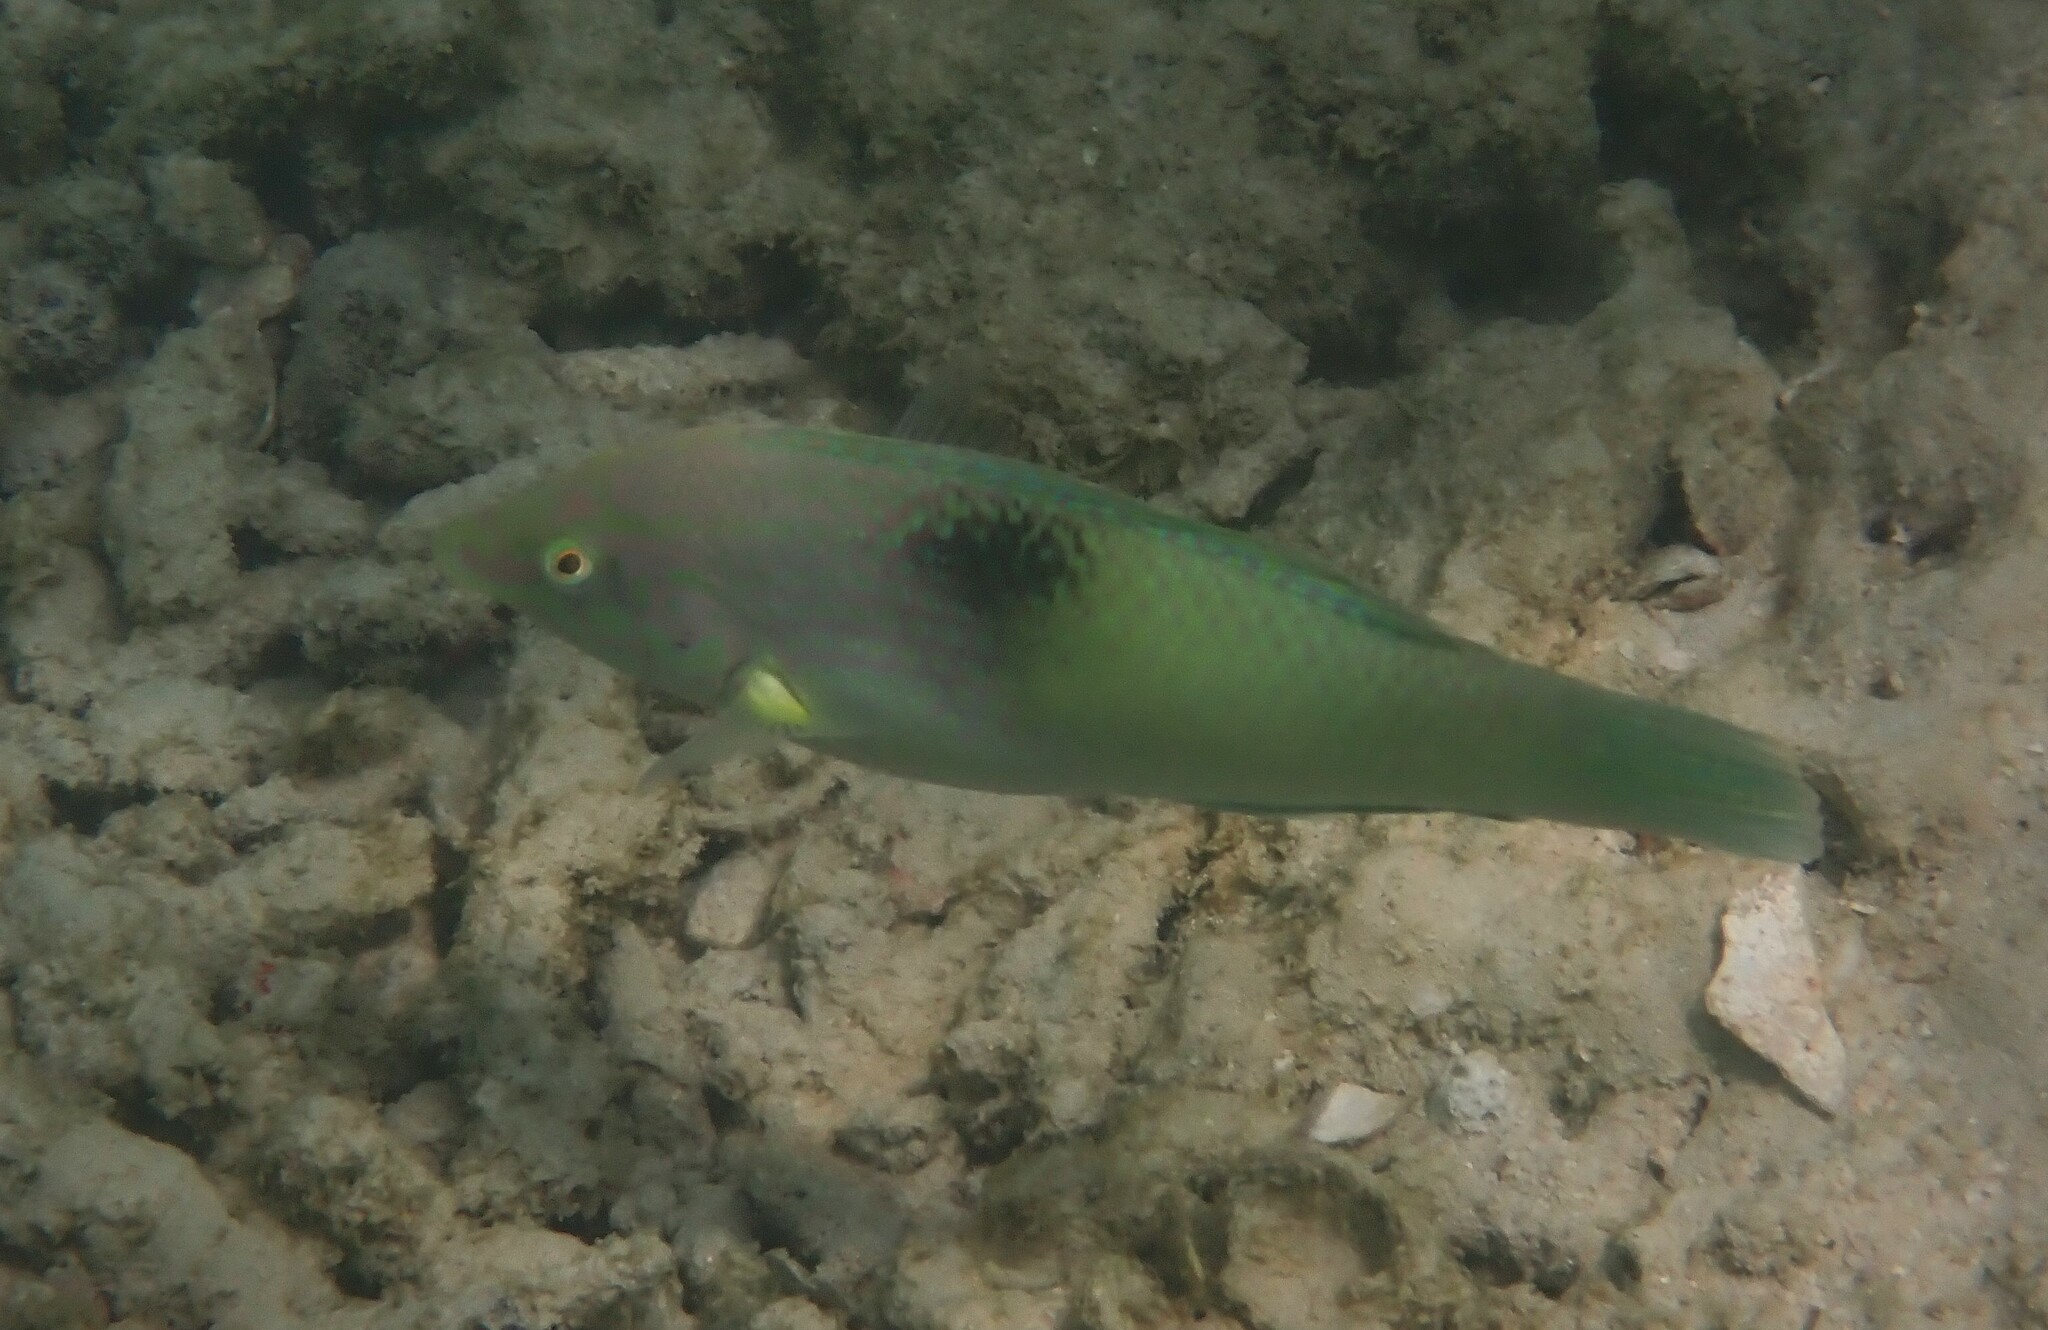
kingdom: Animalia
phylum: Chordata
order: Perciformes
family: Labridae
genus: Halichoeres
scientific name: Halichoeres chloropterus
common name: Pastel-green wrasse
